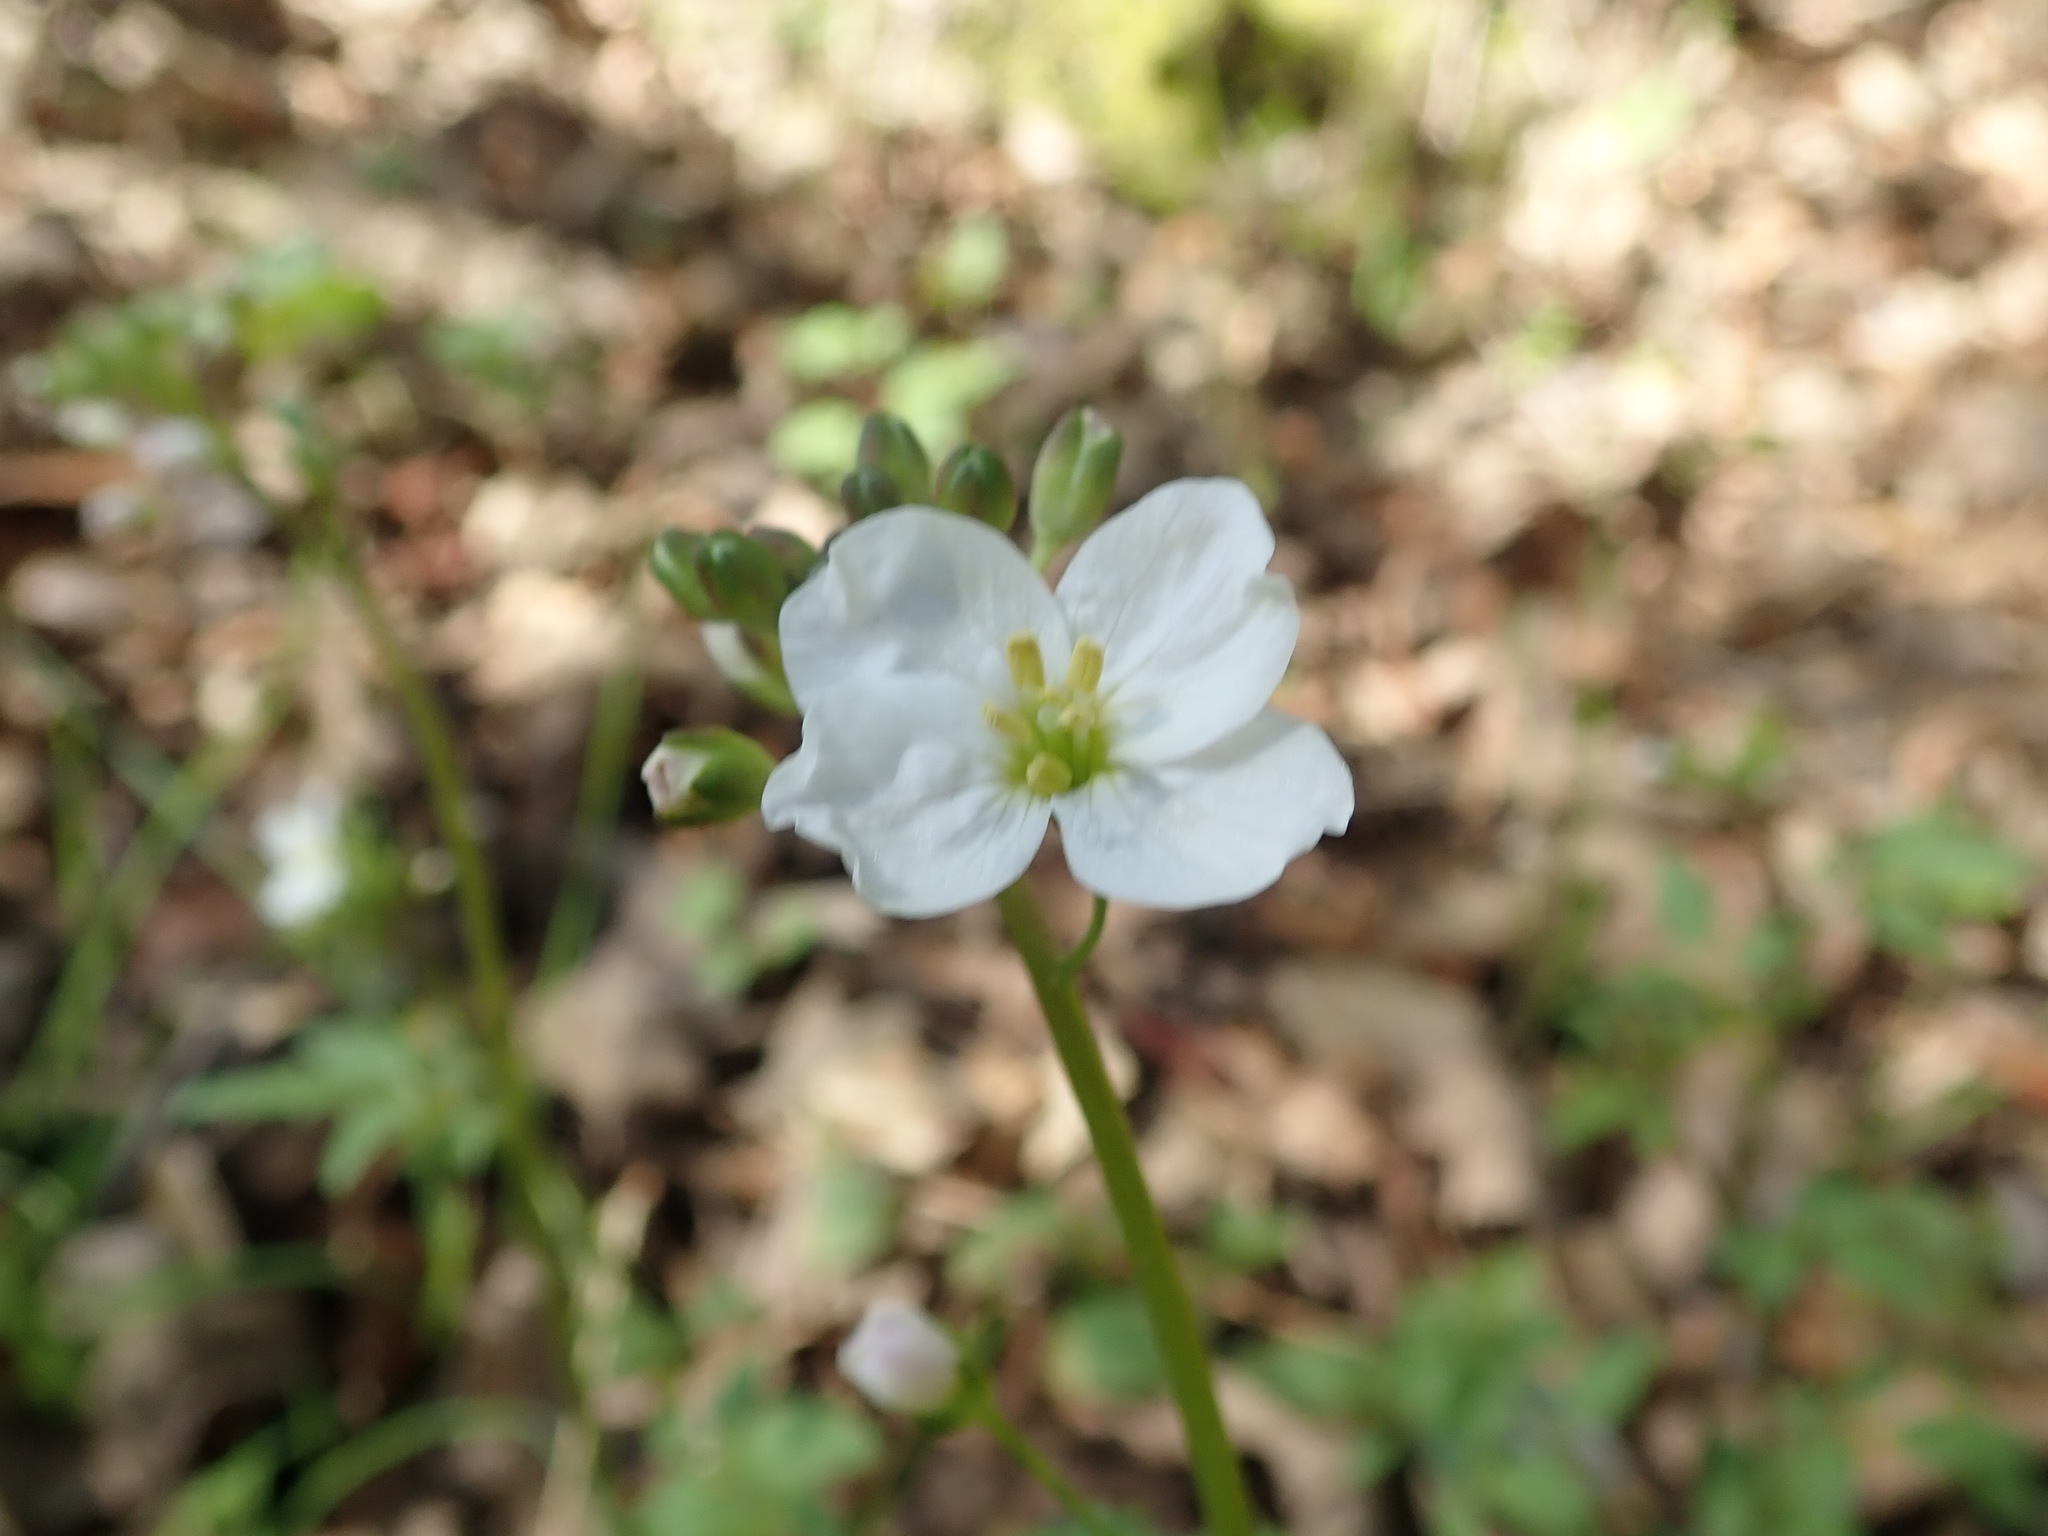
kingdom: Plantae
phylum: Tracheophyta
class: Magnoliopsida
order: Brassicales
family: Brassicaceae
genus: Cardamine
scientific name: Cardamine californica
